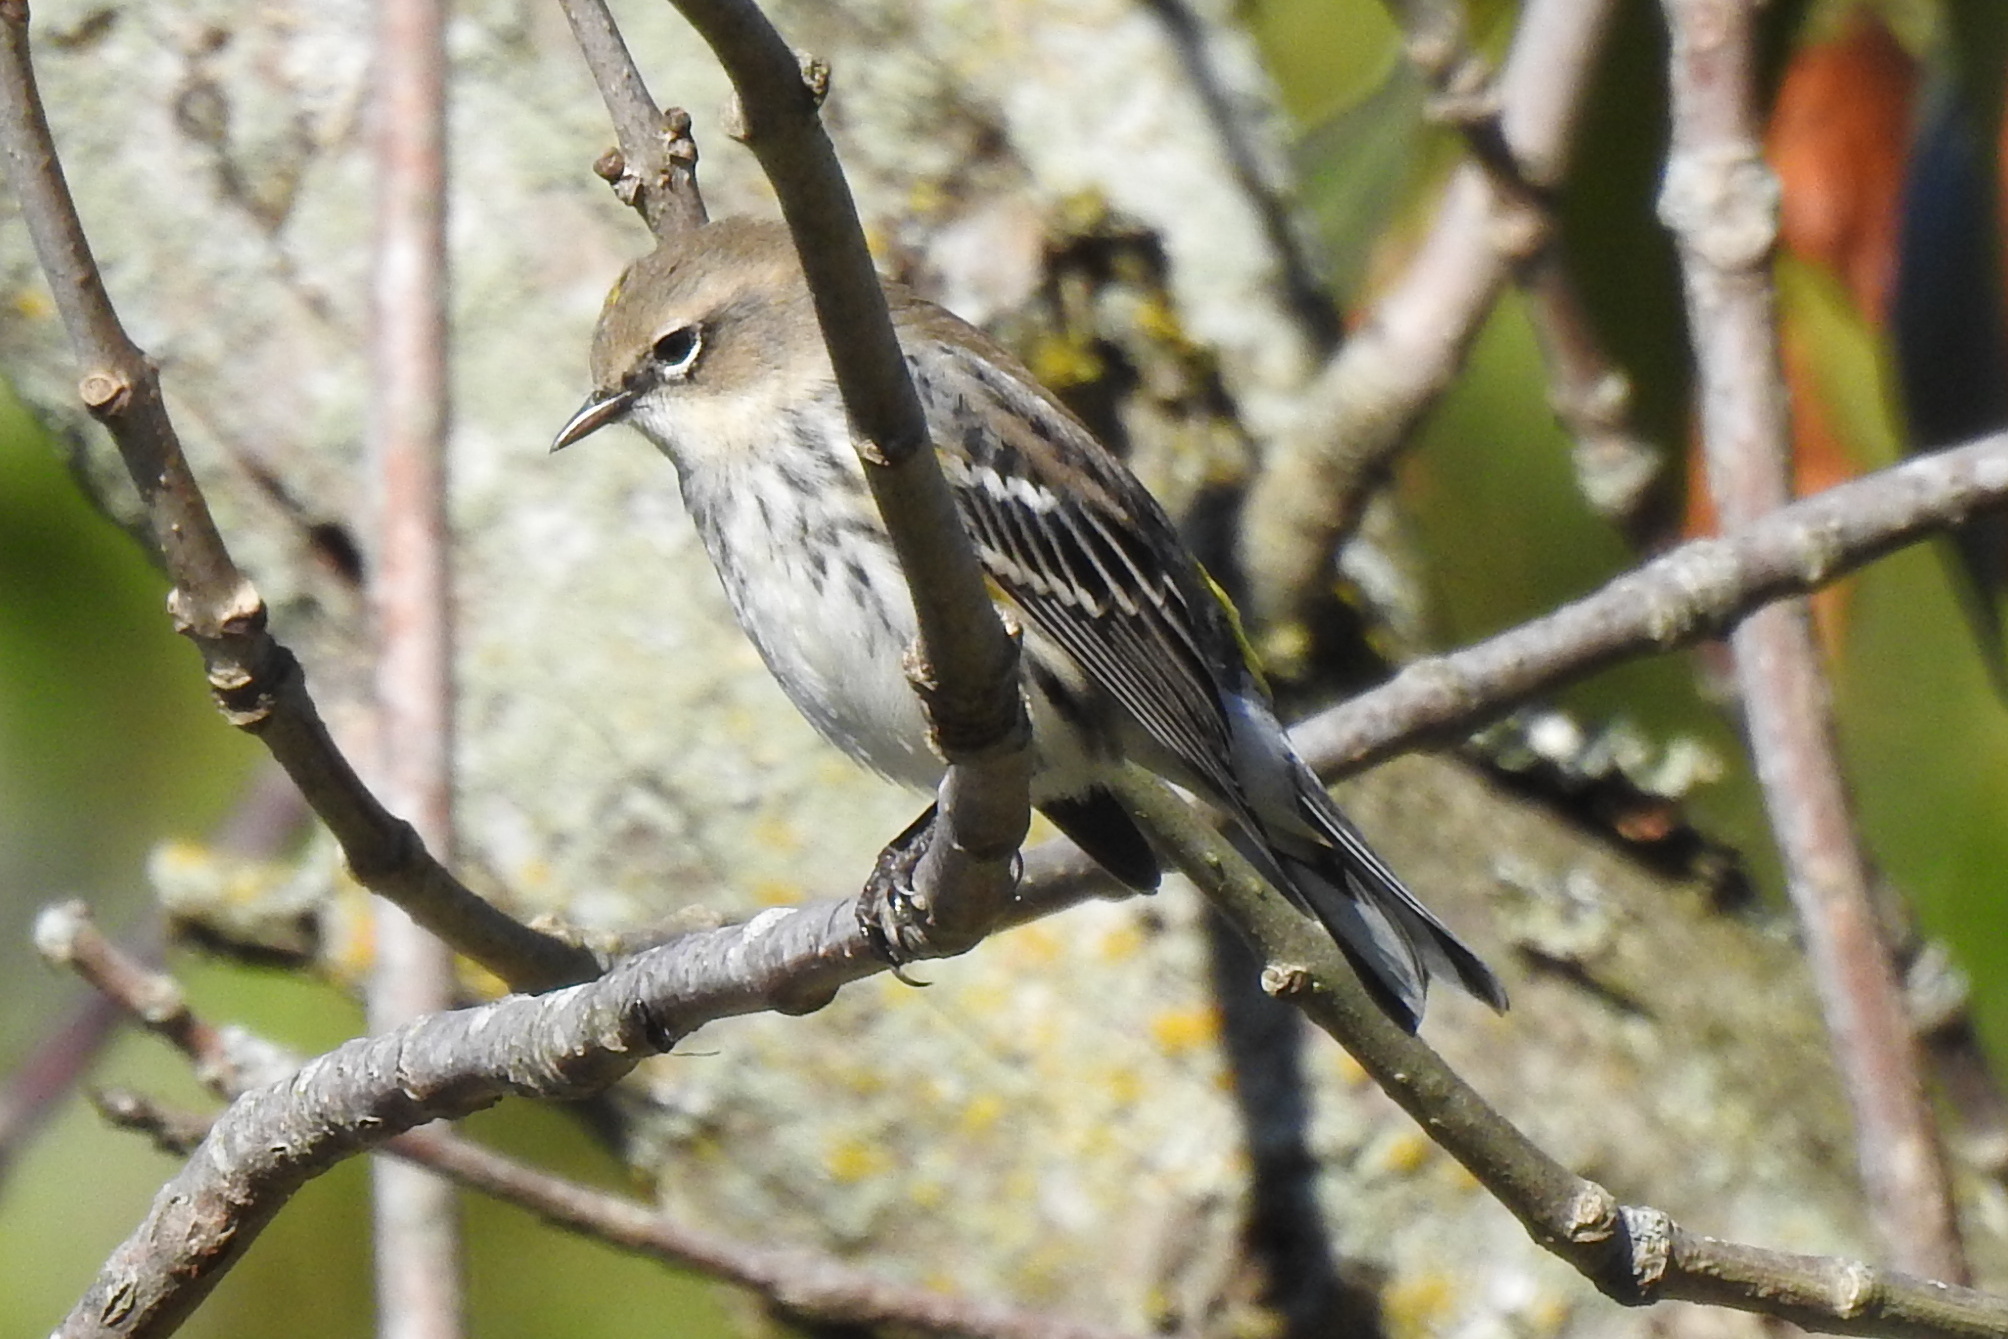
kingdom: Animalia
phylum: Chordata
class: Aves
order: Passeriformes
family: Parulidae
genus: Setophaga
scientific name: Setophaga coronata
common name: Myrtle warbler
